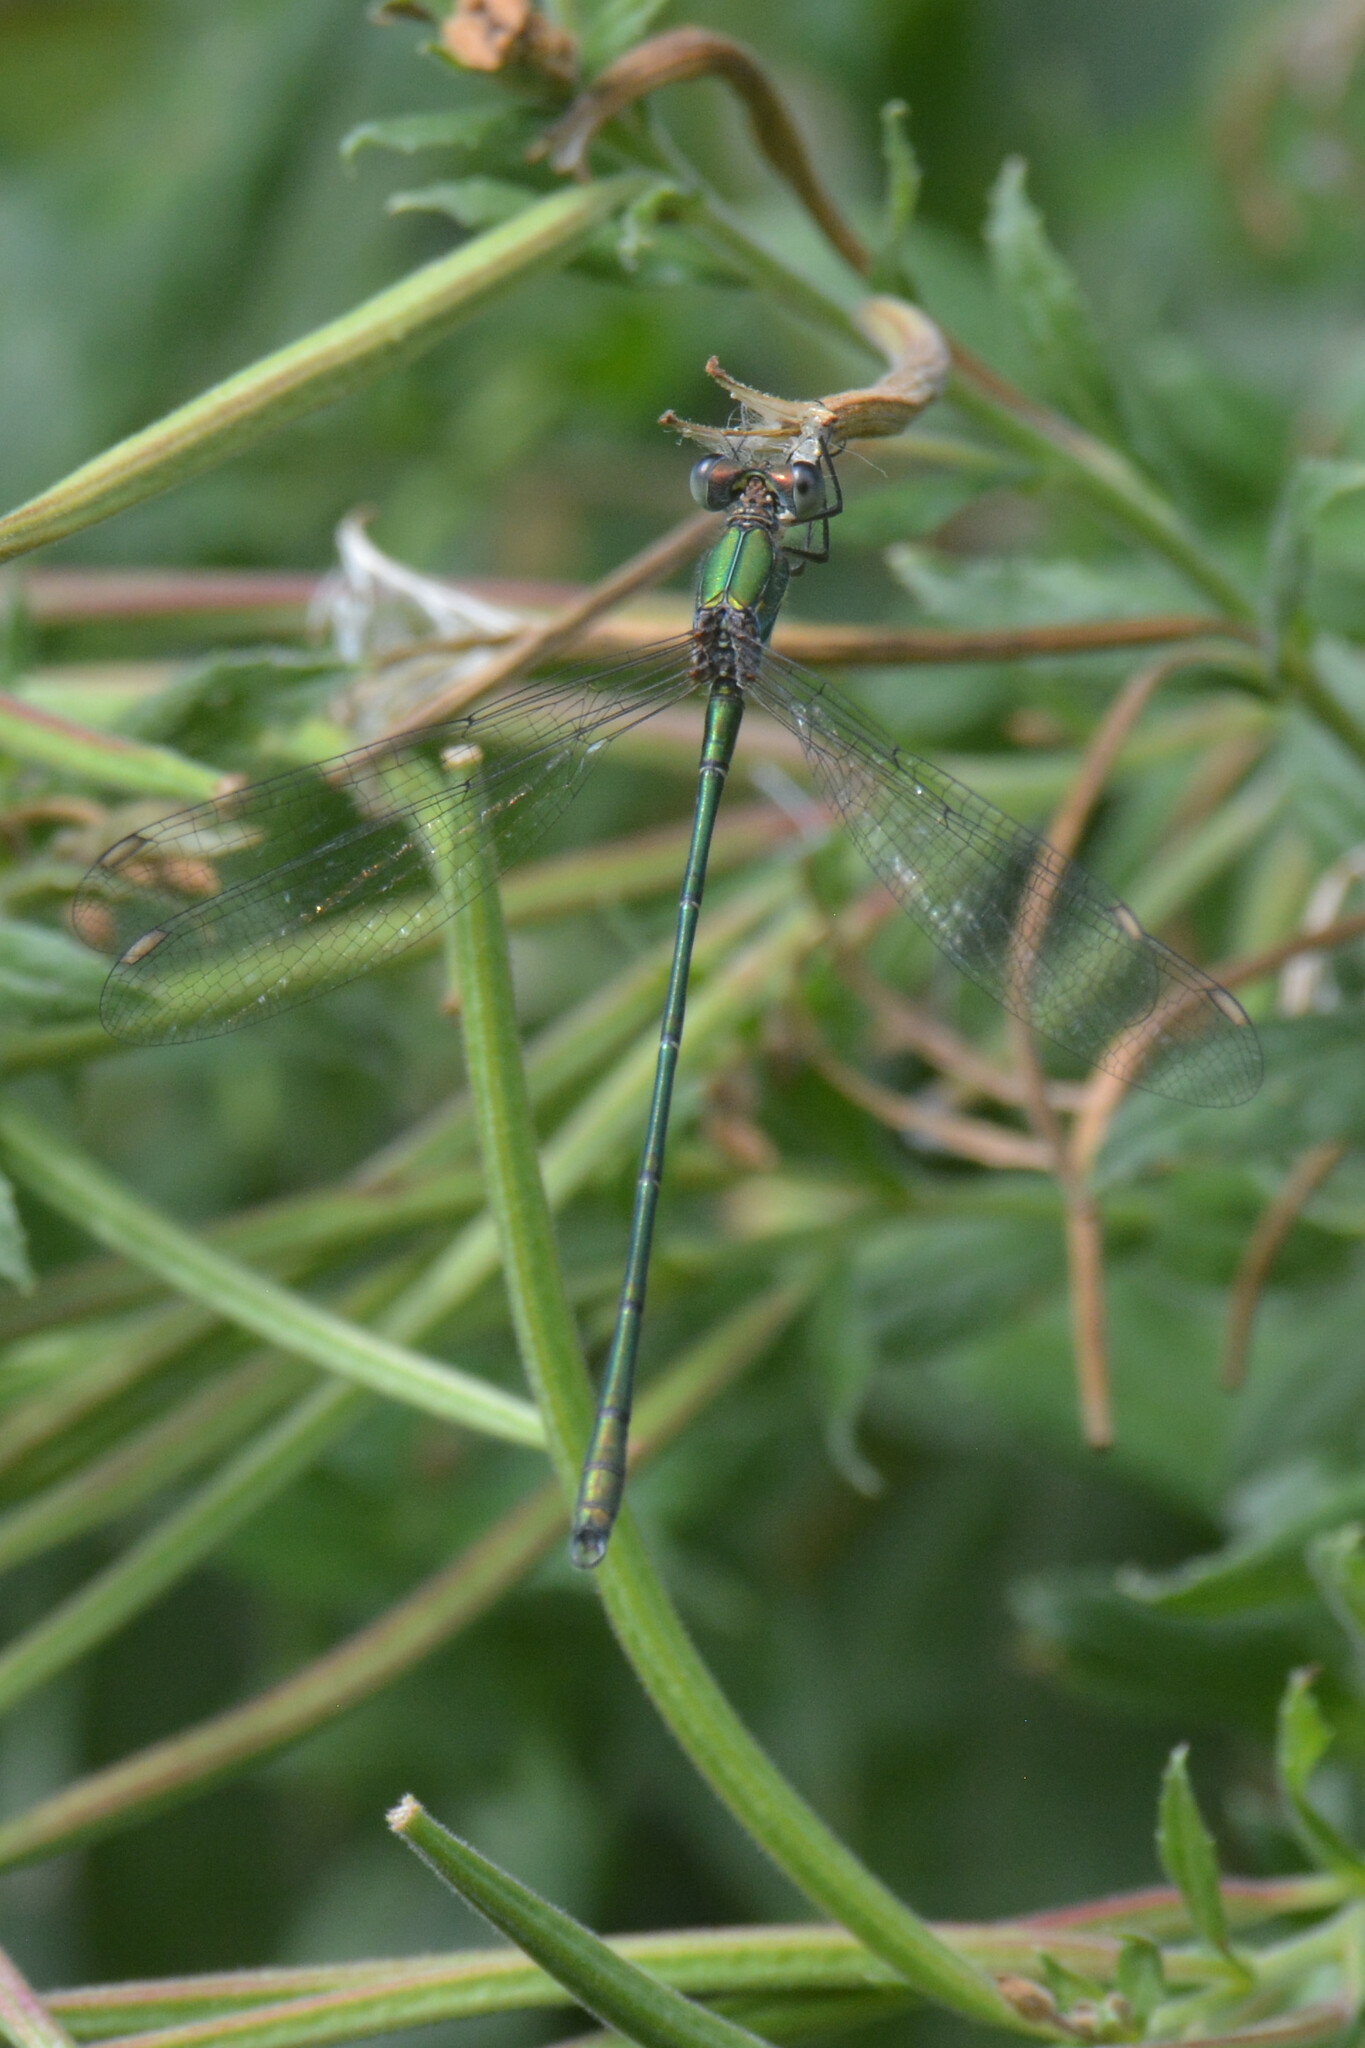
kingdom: Animalia
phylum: Arthropoda
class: Insecta
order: Odonata
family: Lestidae
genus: Chalcolestes
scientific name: Chalcolestes viridis
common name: Green emerald damselfly
